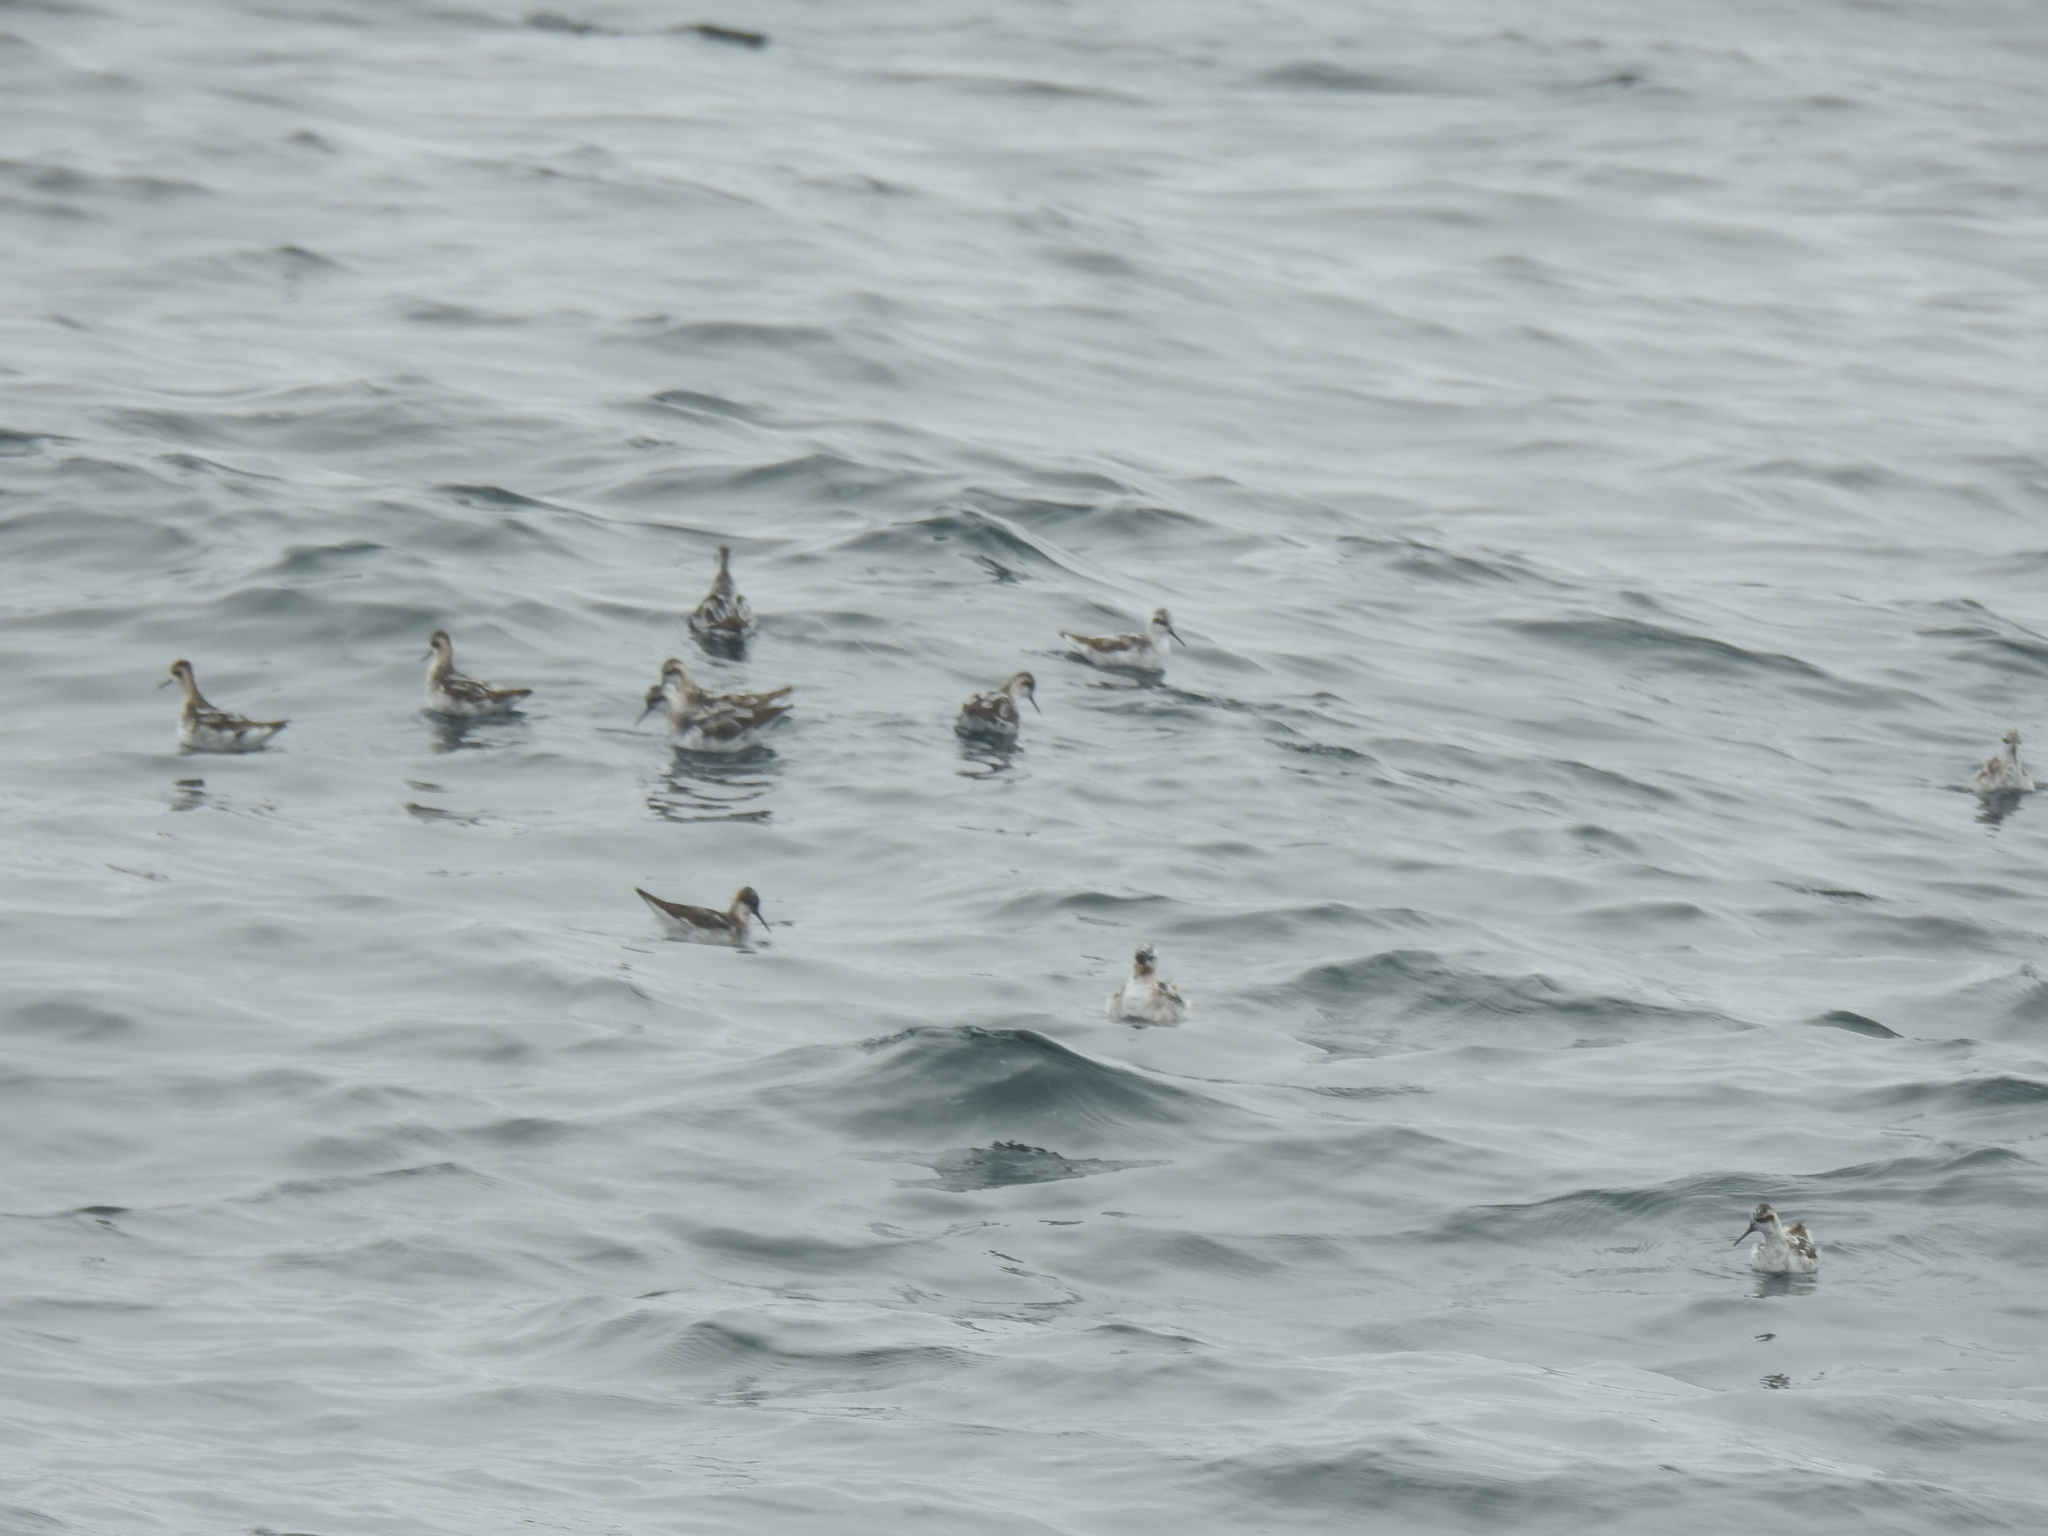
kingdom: Animalia
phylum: Chordata
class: Aves
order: Charadriiformes
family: Scolopacidae
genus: Phalaropus
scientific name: Phalaropus lobatus
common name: Red-necked phalarope
